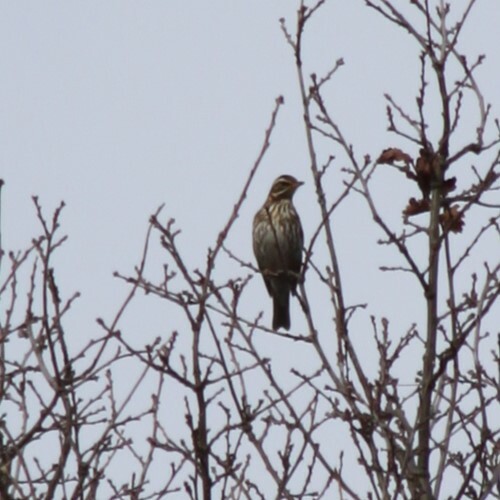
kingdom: Animalia
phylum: Chordata
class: Aves
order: Passeriformes
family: Turdidae
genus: Turdus
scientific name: Turdus iliacus
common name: Redwing
